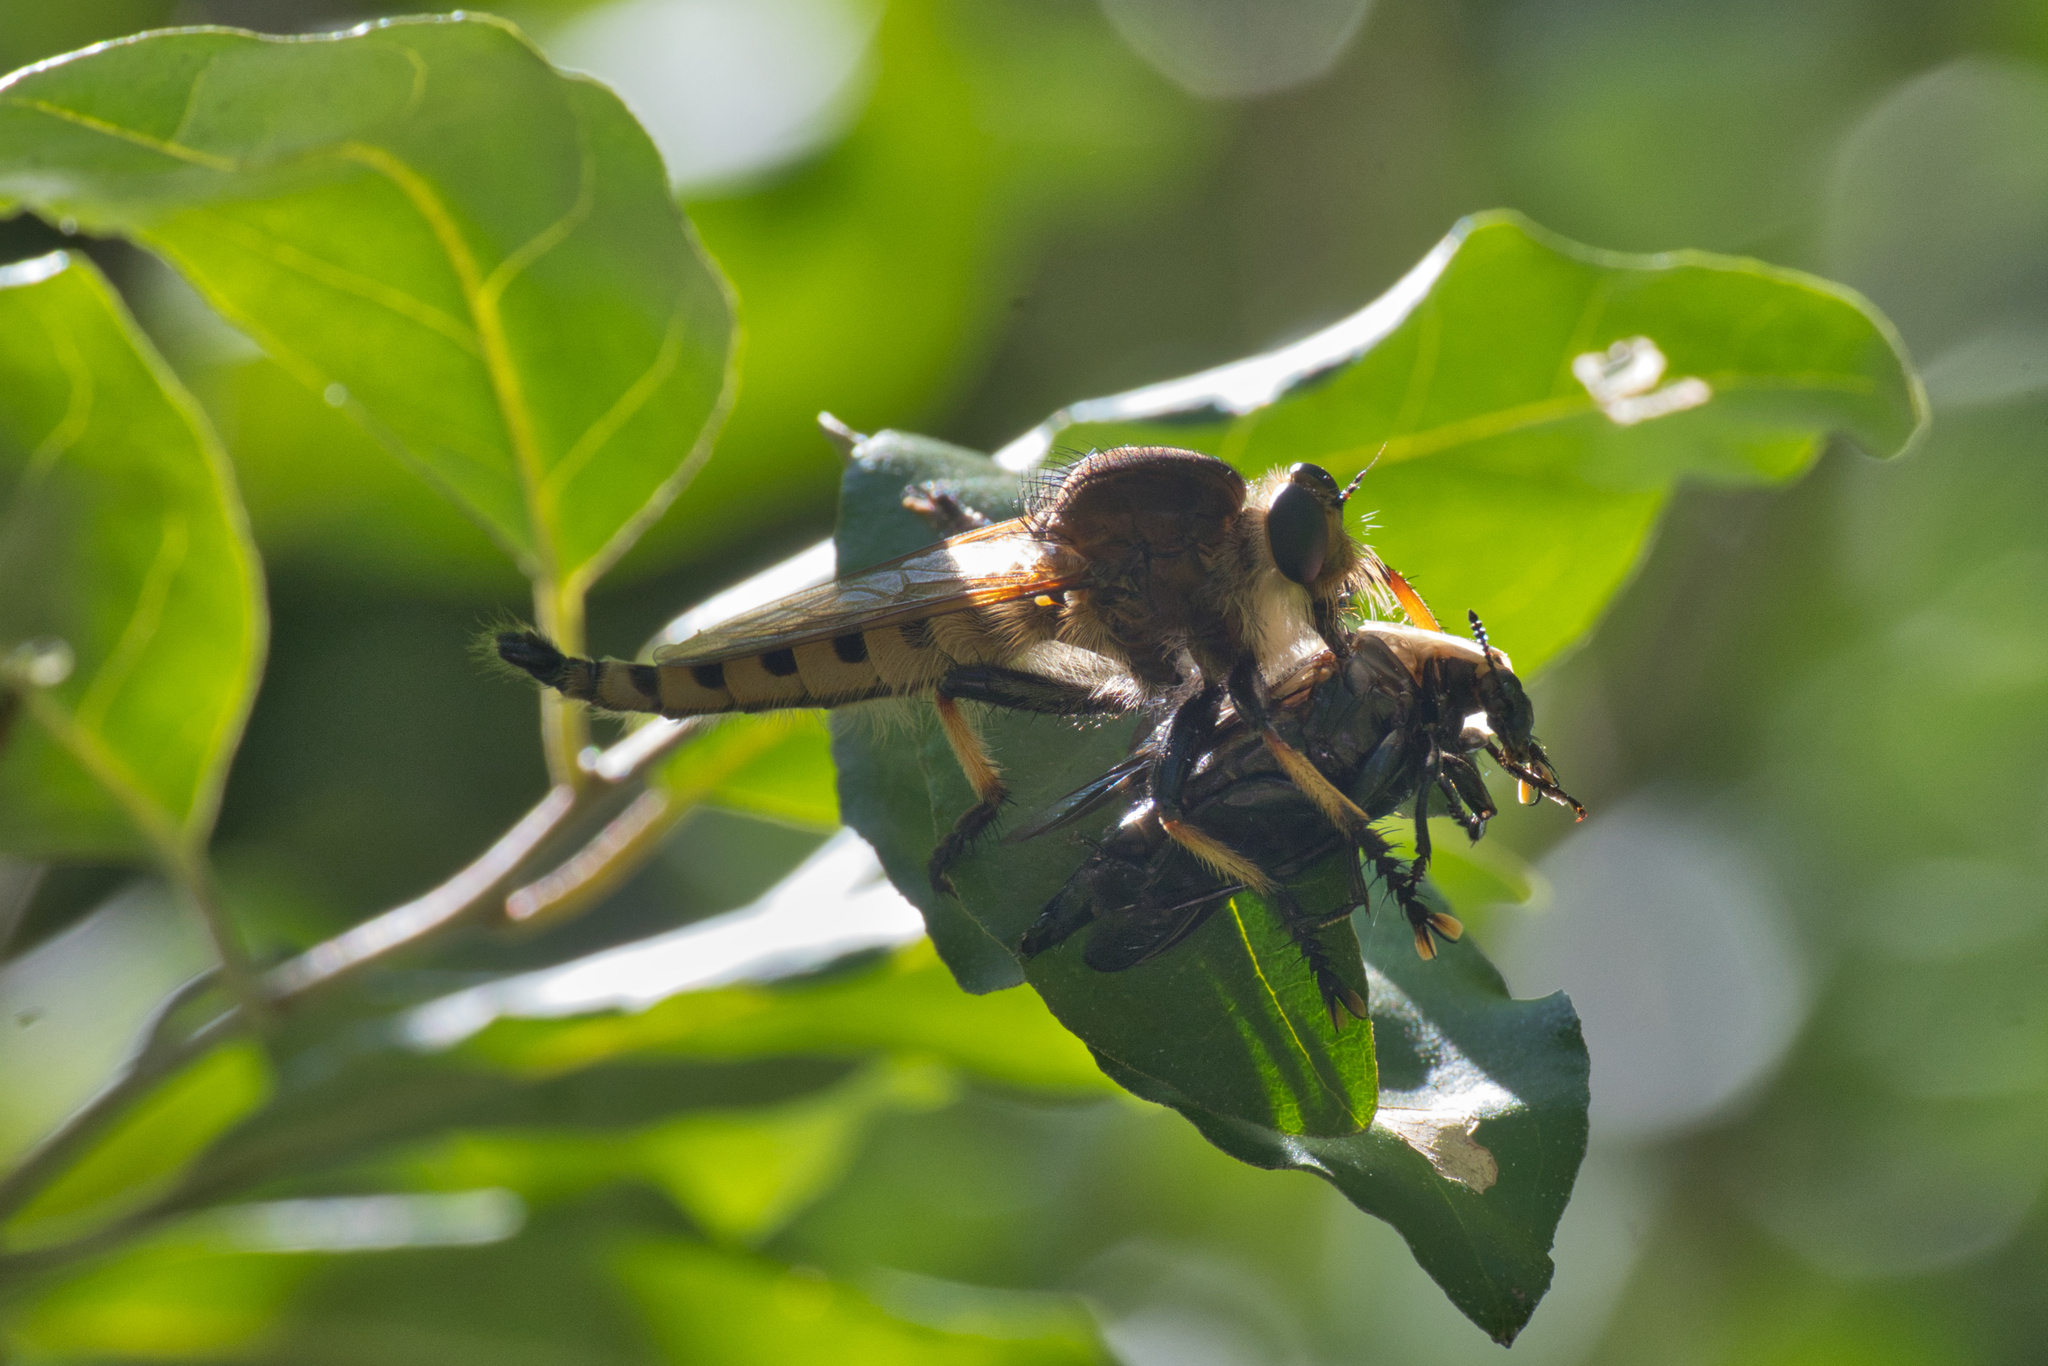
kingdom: Animalia
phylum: Arthropoda
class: Insecta
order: Diptera
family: Asilidae
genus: Promachus
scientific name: Promachus rufipes
